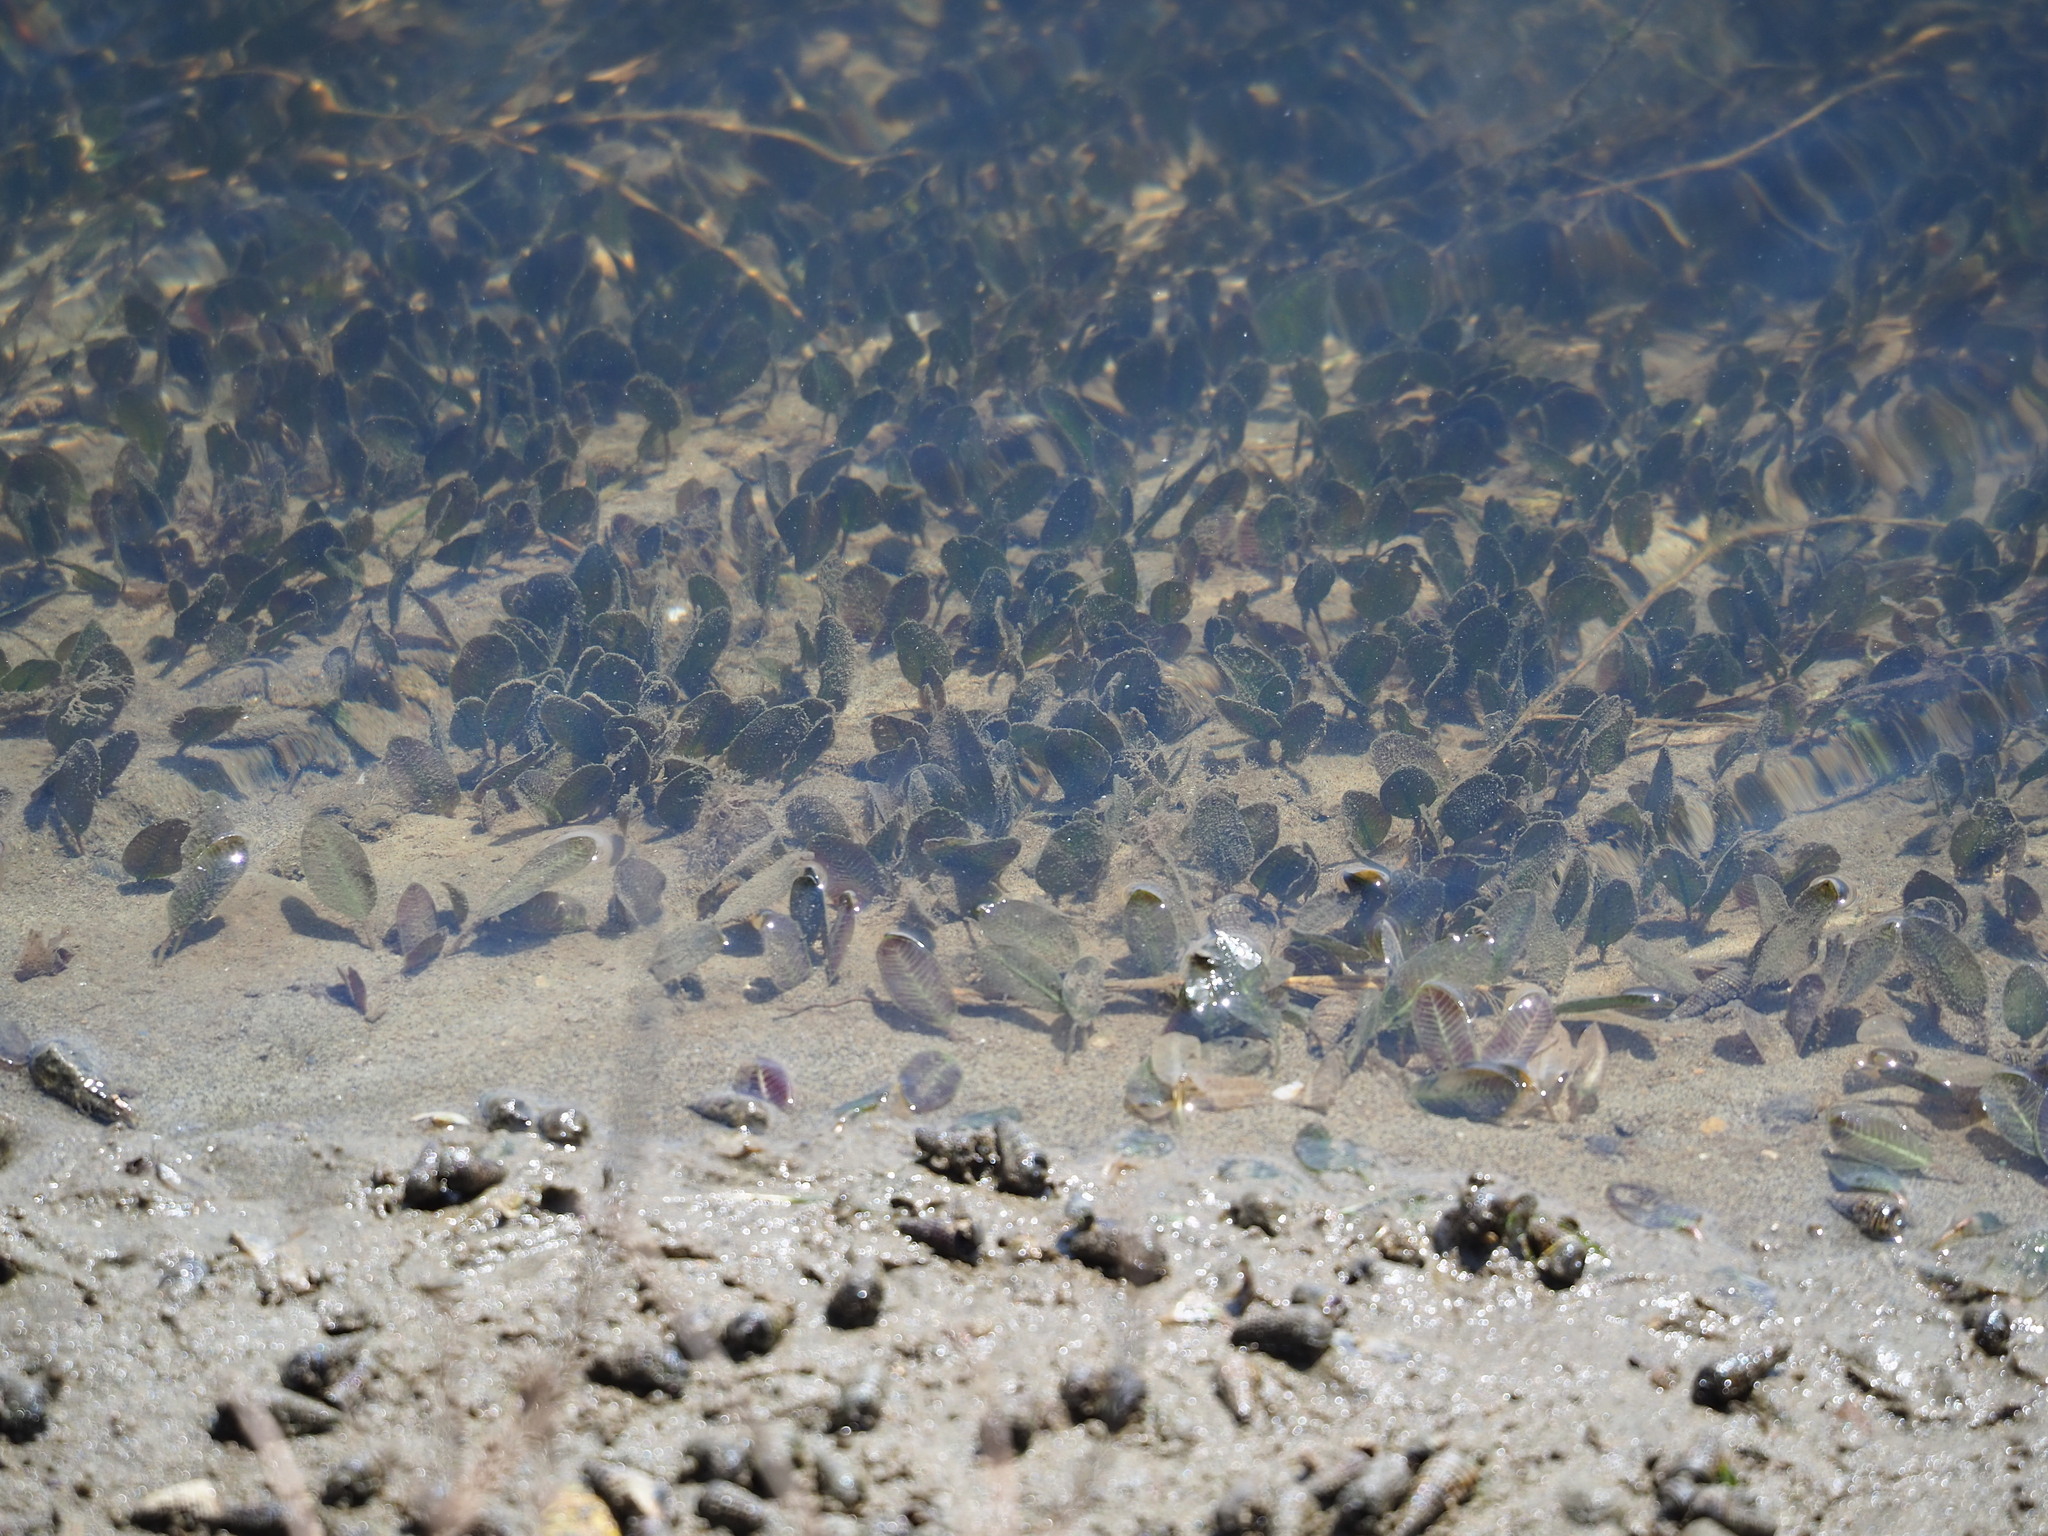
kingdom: Plantae
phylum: Tracheophyta
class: Liliopsida
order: Alismatales
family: Hydrocharitaceae
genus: Halophila
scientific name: Halophila ovalis
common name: Species code: ho
